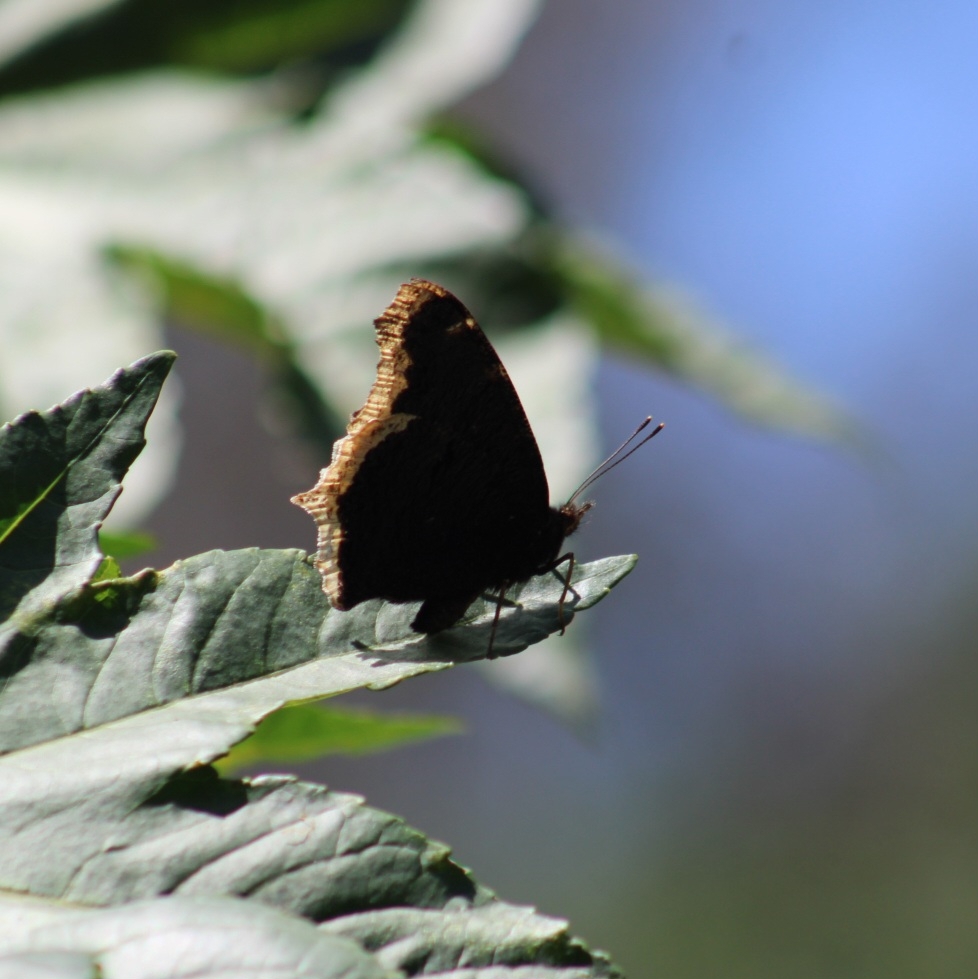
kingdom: Animalia
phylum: Arthropoda
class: Insecta
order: Lepidoptera
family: Nymphalidae
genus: Nymphalis
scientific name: Nymphalis antiopa
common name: Camberwell beauty
